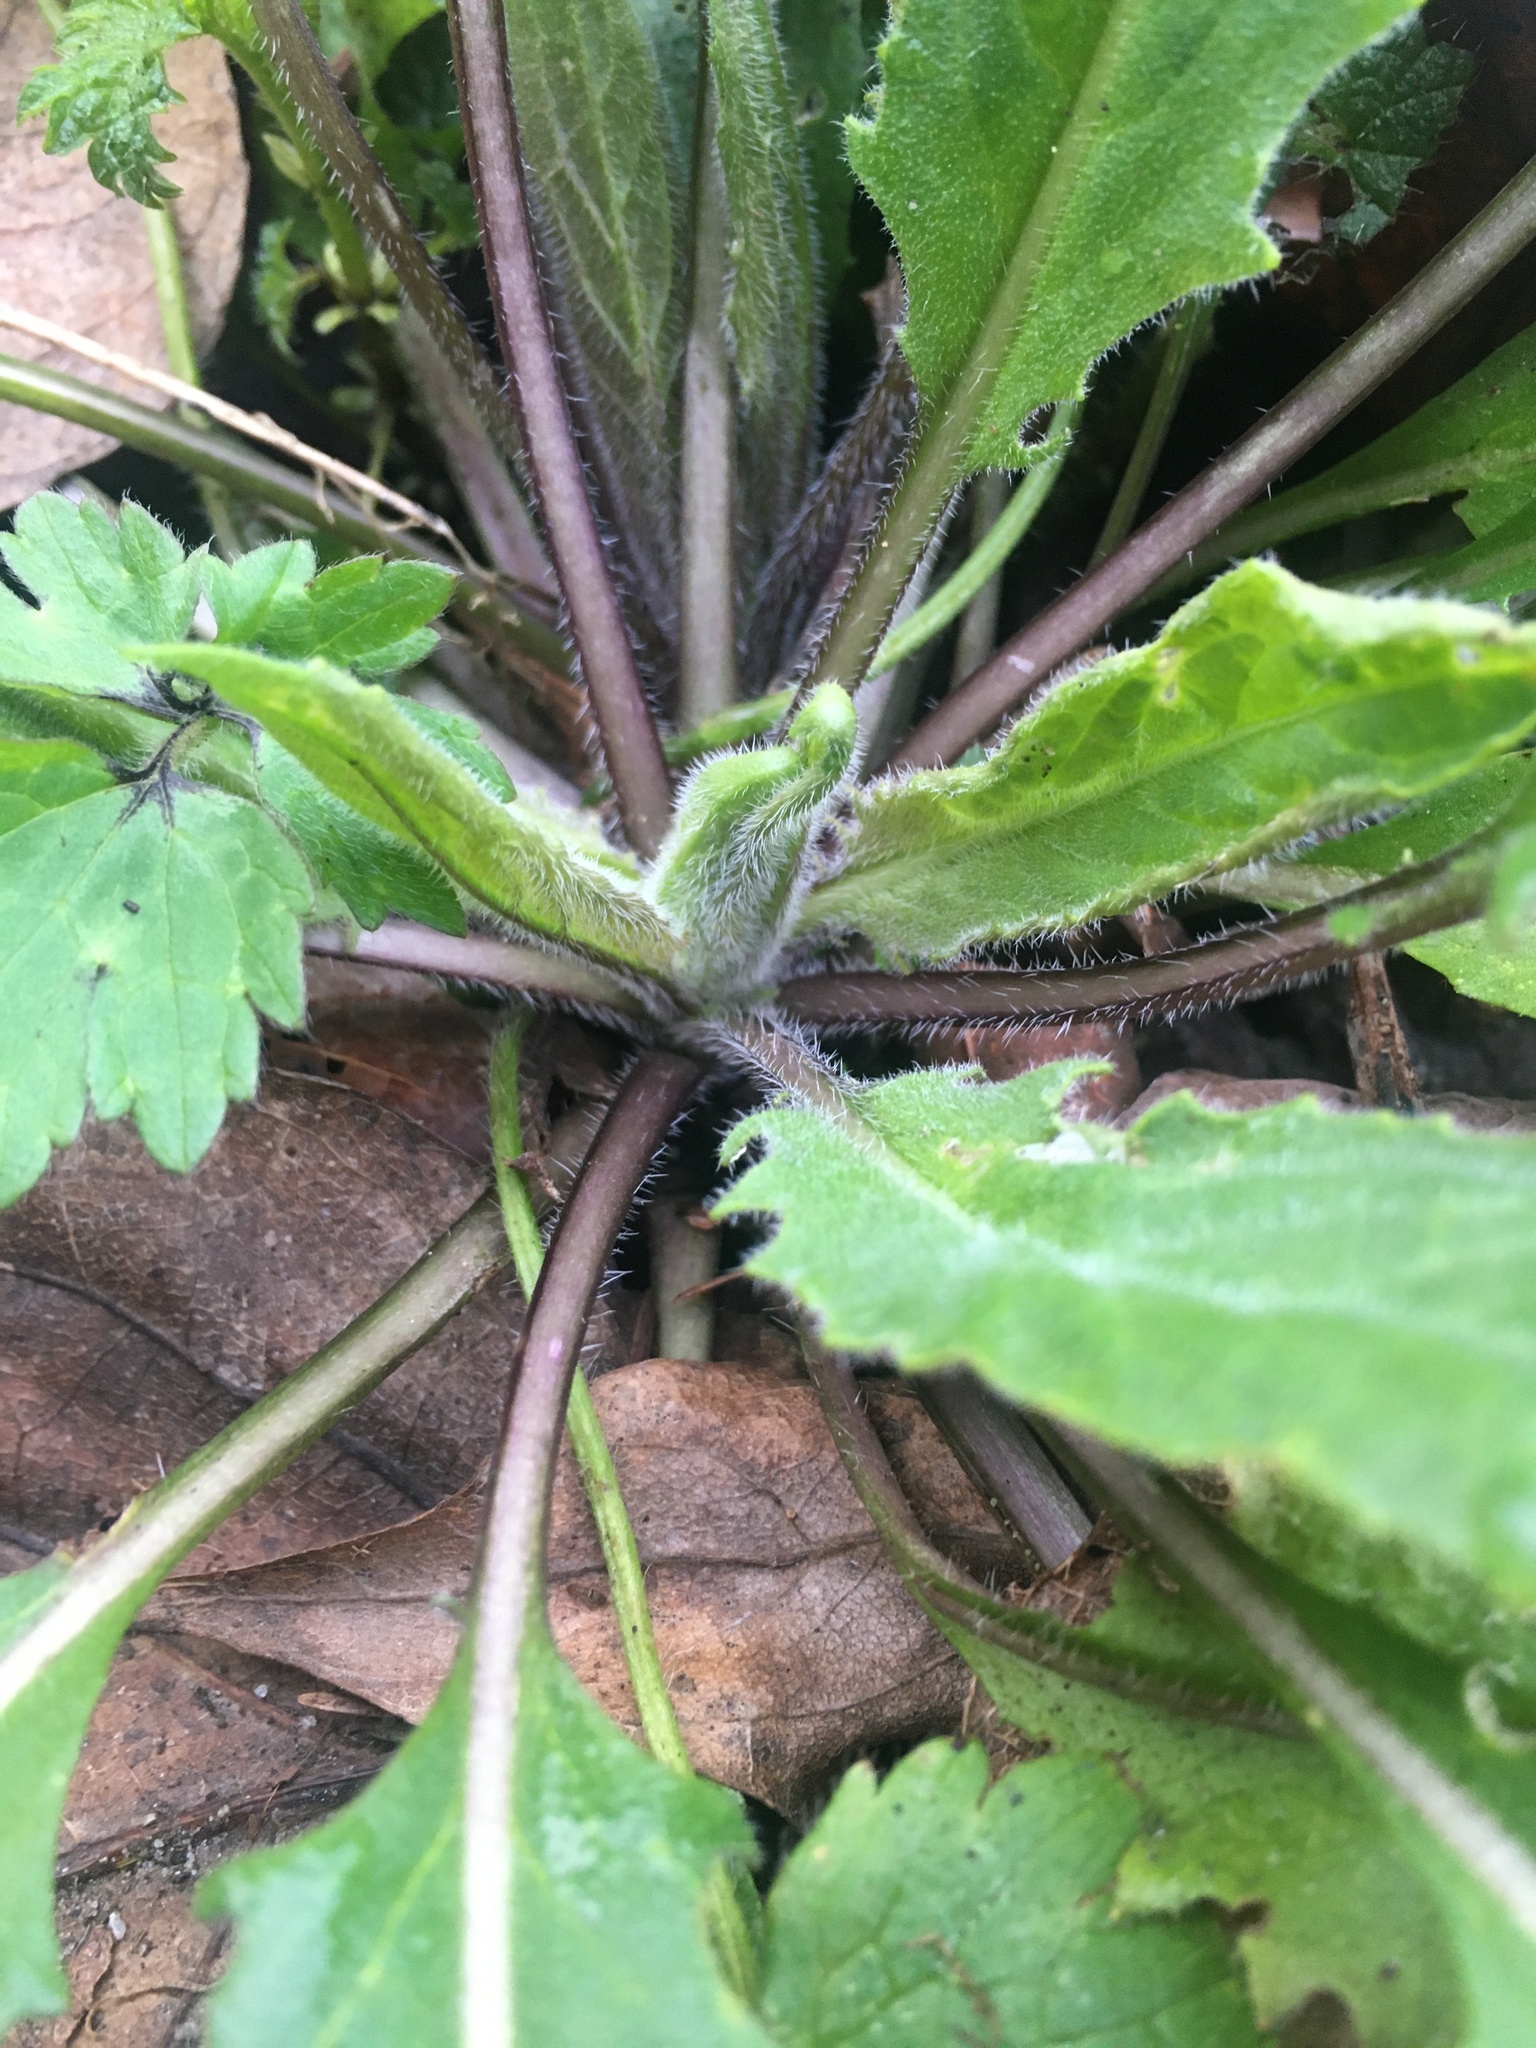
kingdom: Plantae
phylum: Tracheophyta
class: Magnoliopsida
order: Brassicales
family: Brassicaceae
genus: Hesperis
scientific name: Hesperis matronalis
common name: Dame's-violet
